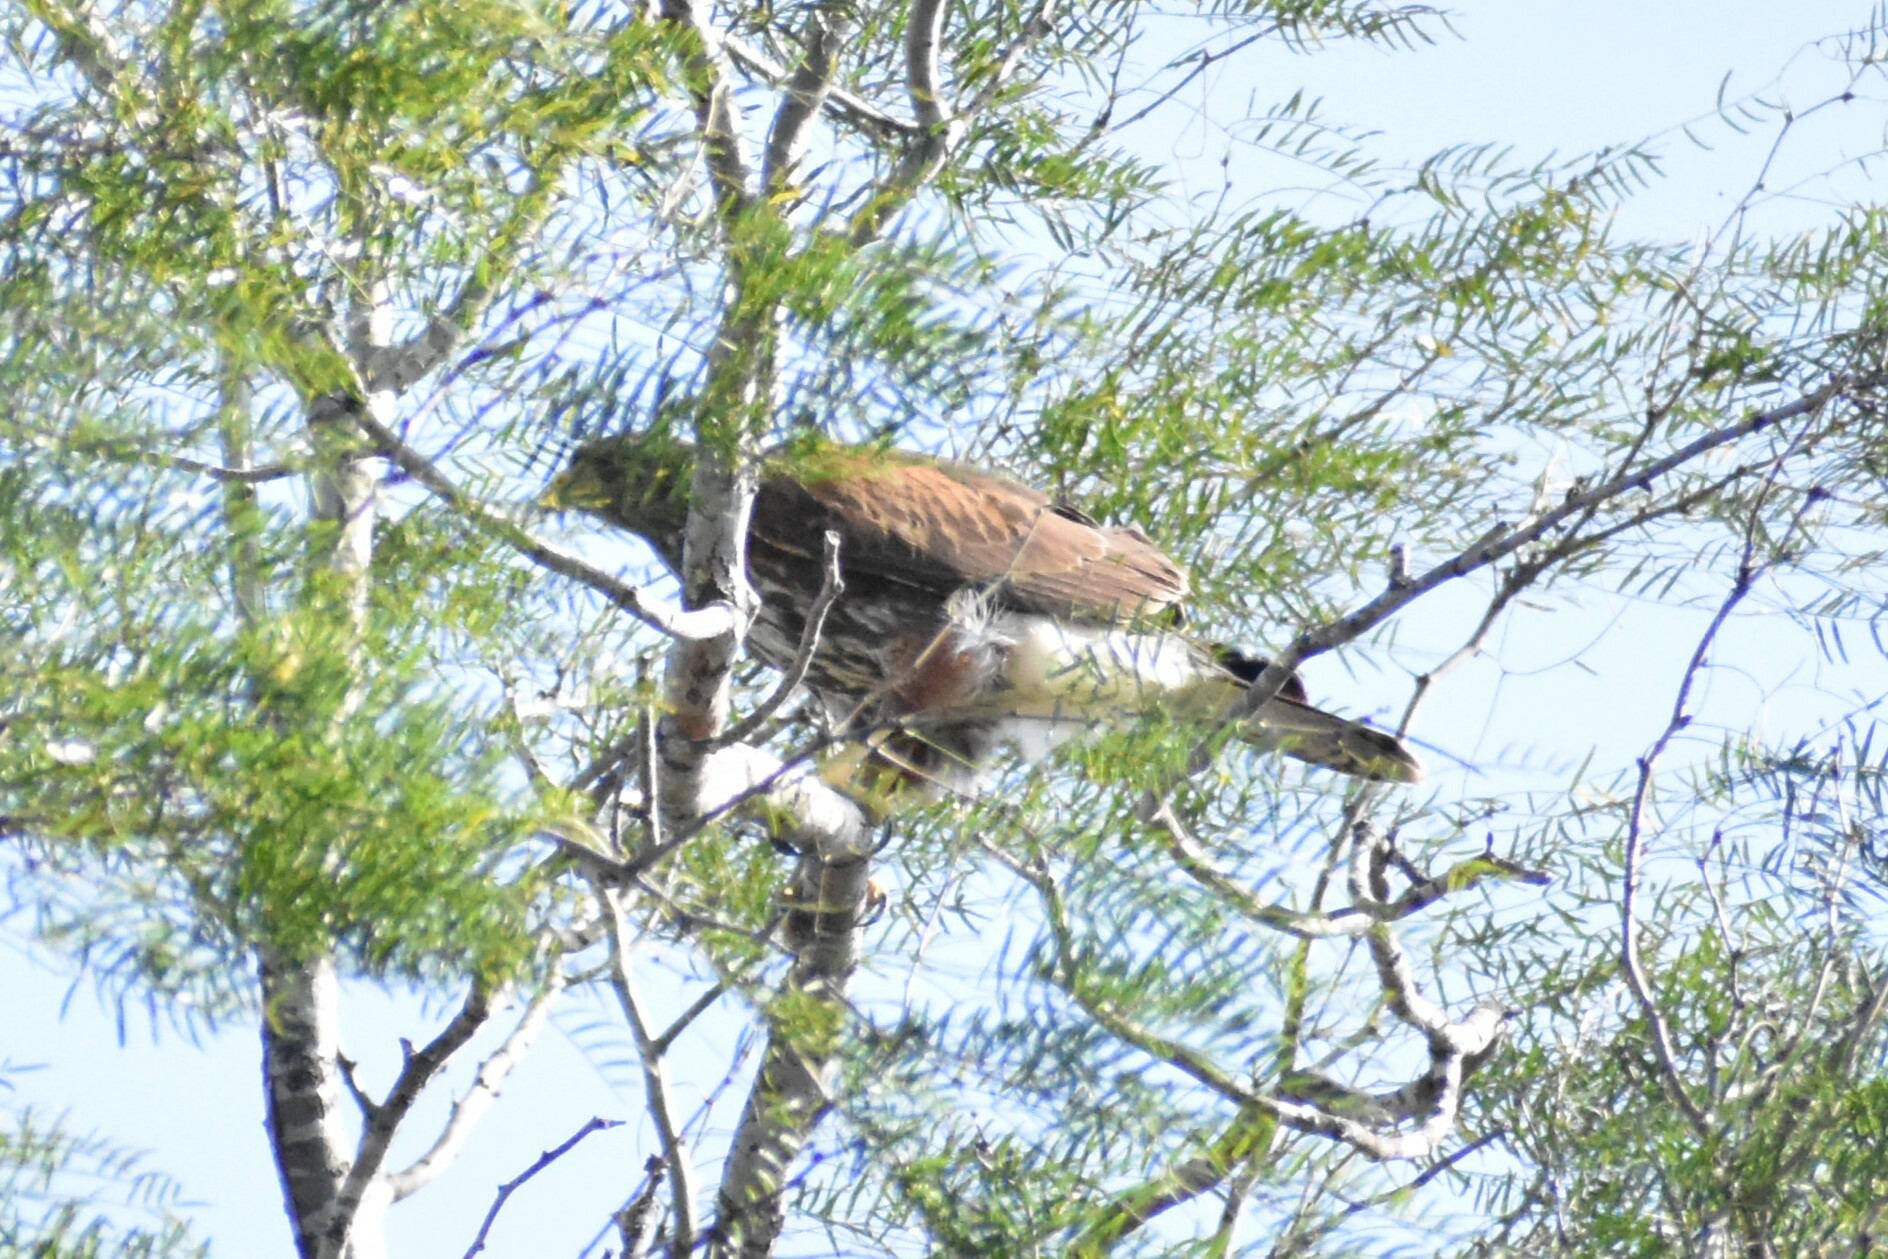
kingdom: Animalia
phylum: Chordata
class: Aves
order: Accipitriformes
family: Accipitridae
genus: Parabuteo
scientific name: Parabuteo unicinctus
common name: Harris's hawk
